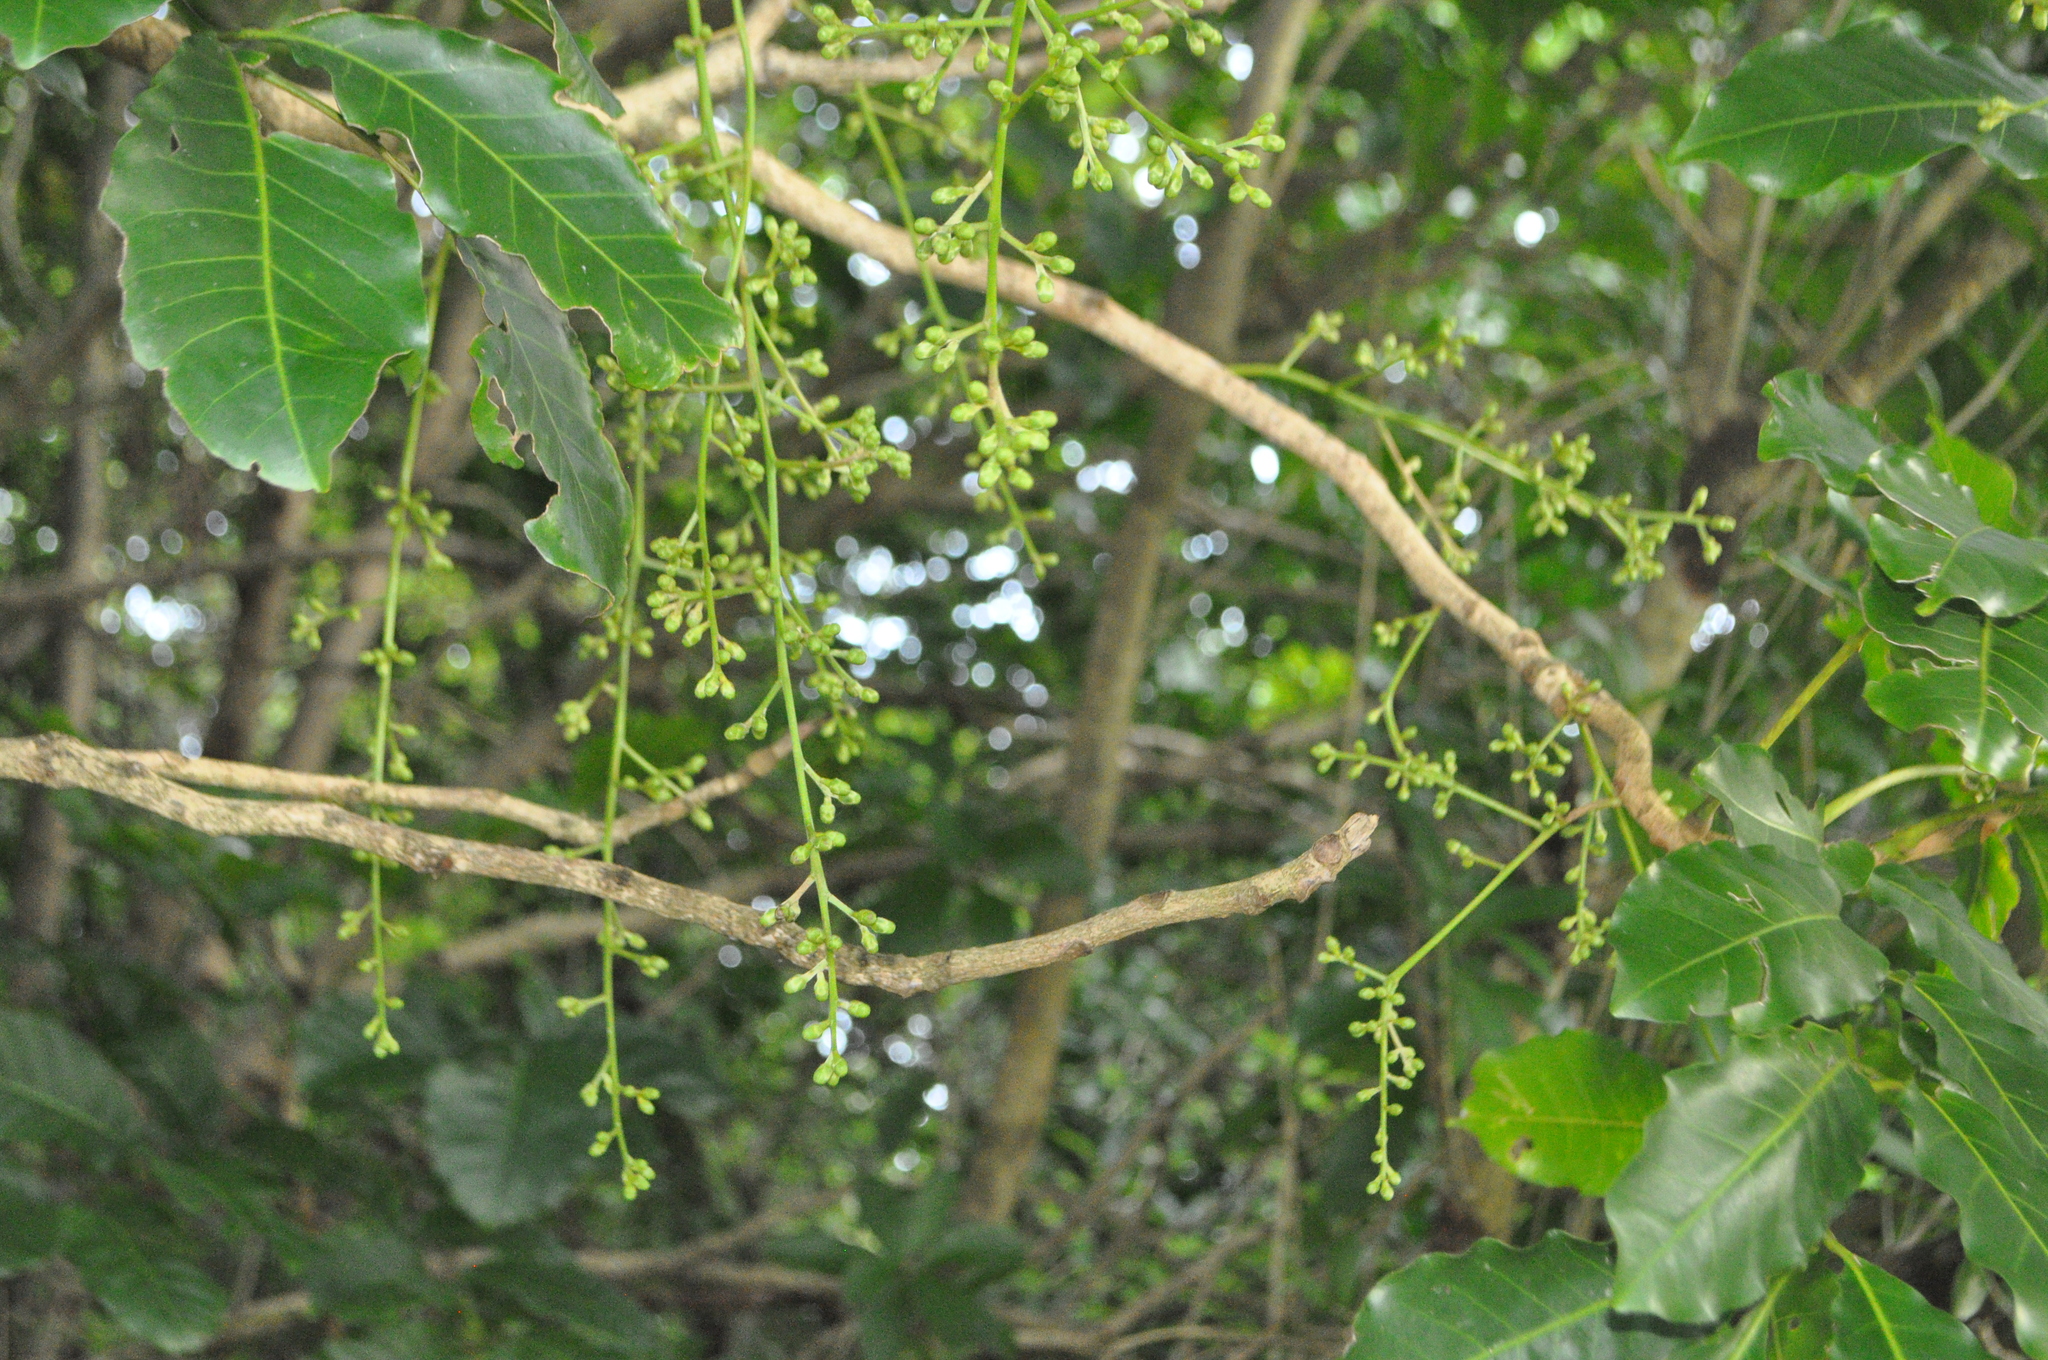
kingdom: Plantae
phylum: Tracheophyta
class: Magnoliopsida
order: Sapindales
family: Meliaceae
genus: Didymocheton
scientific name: Didymocheton spectabilis
